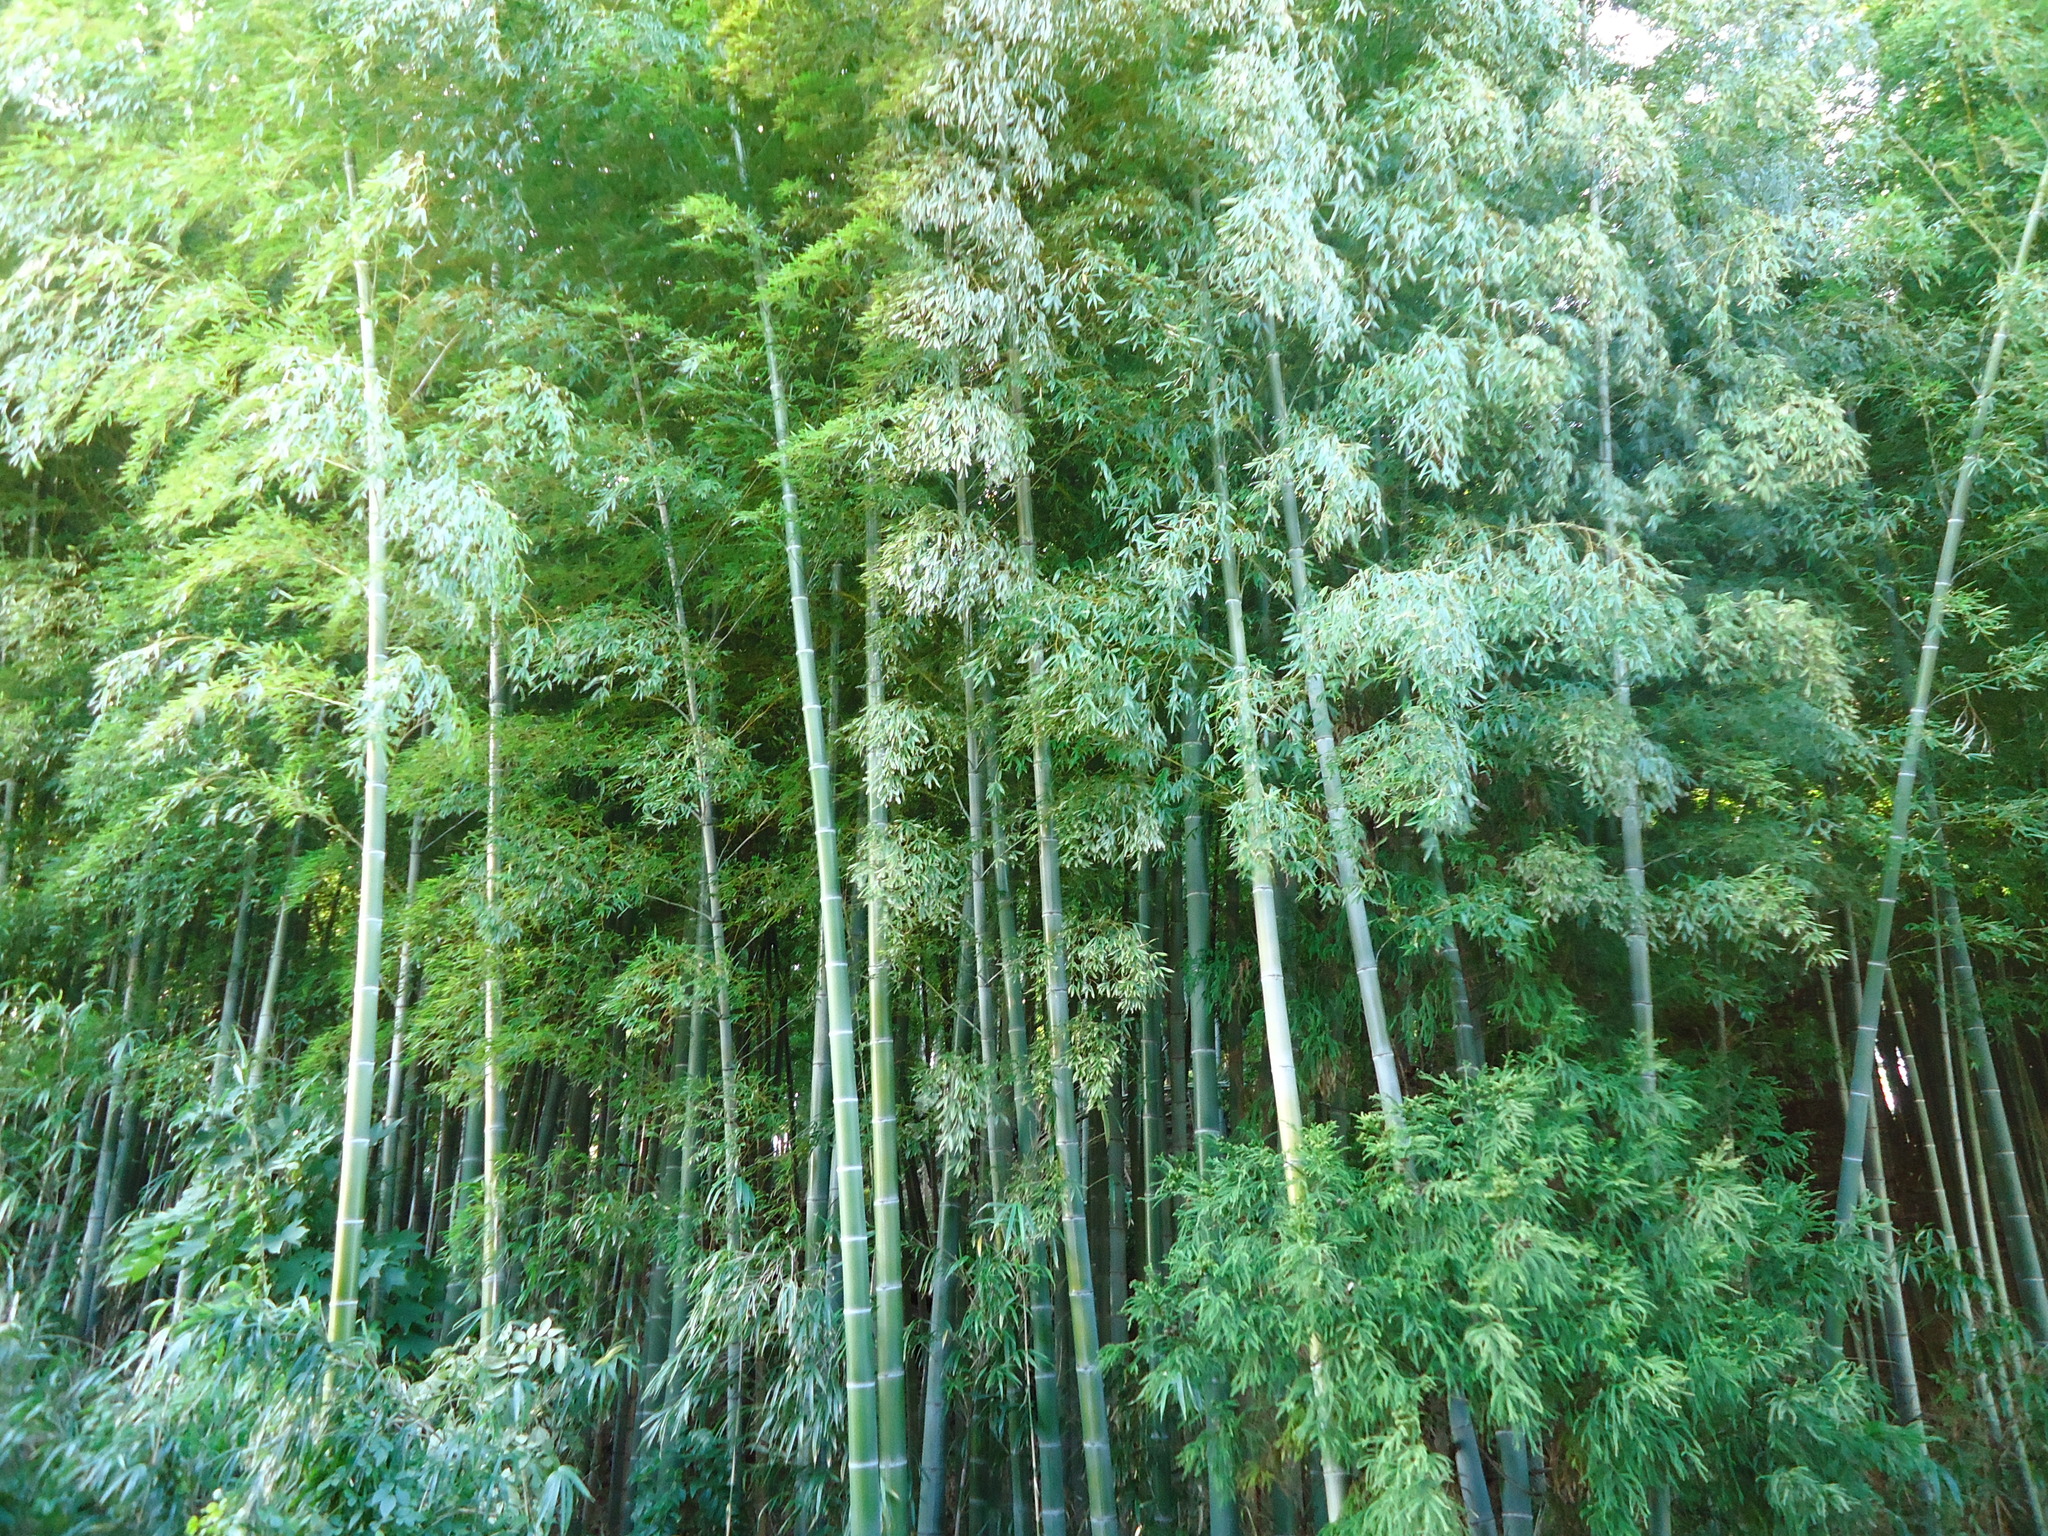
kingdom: Plantae
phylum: Tracheophyta
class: Liliopsida
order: Poales
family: Poaceae
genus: Phyllostachys
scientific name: Phyllostachys edulis
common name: Tortoise shell bamboo
